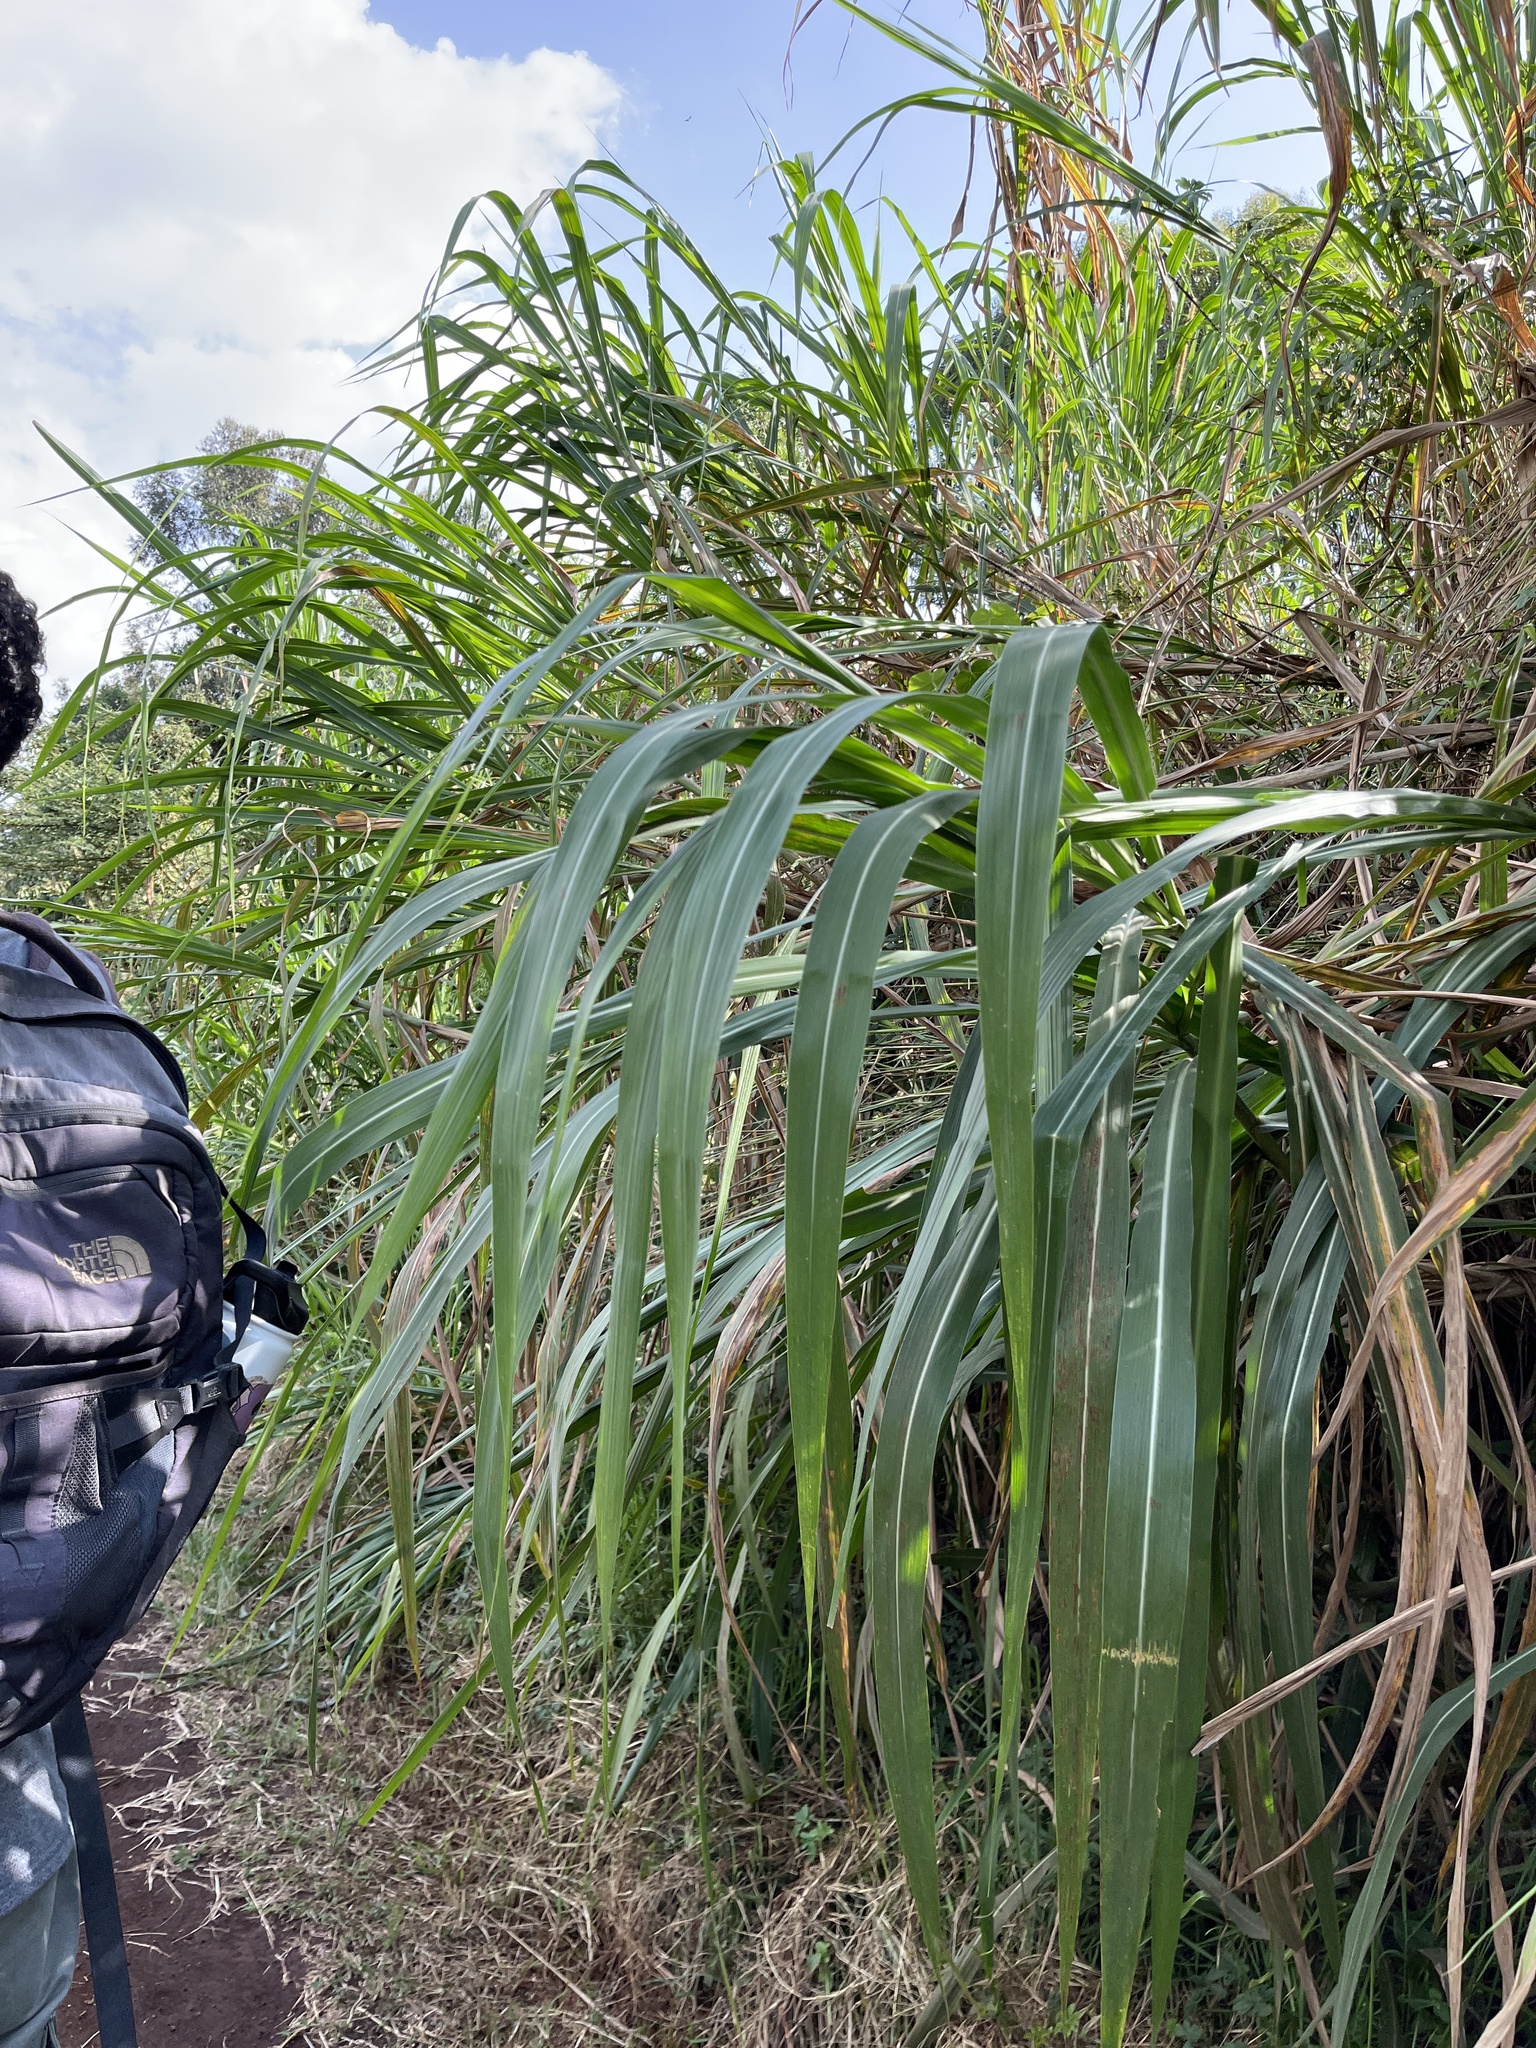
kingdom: Plantae
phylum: Tracheophyta
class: Liliopsida
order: Poales
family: Poaceae
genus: Saccharum
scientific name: Saccharum officinarum
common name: Sugarcane
